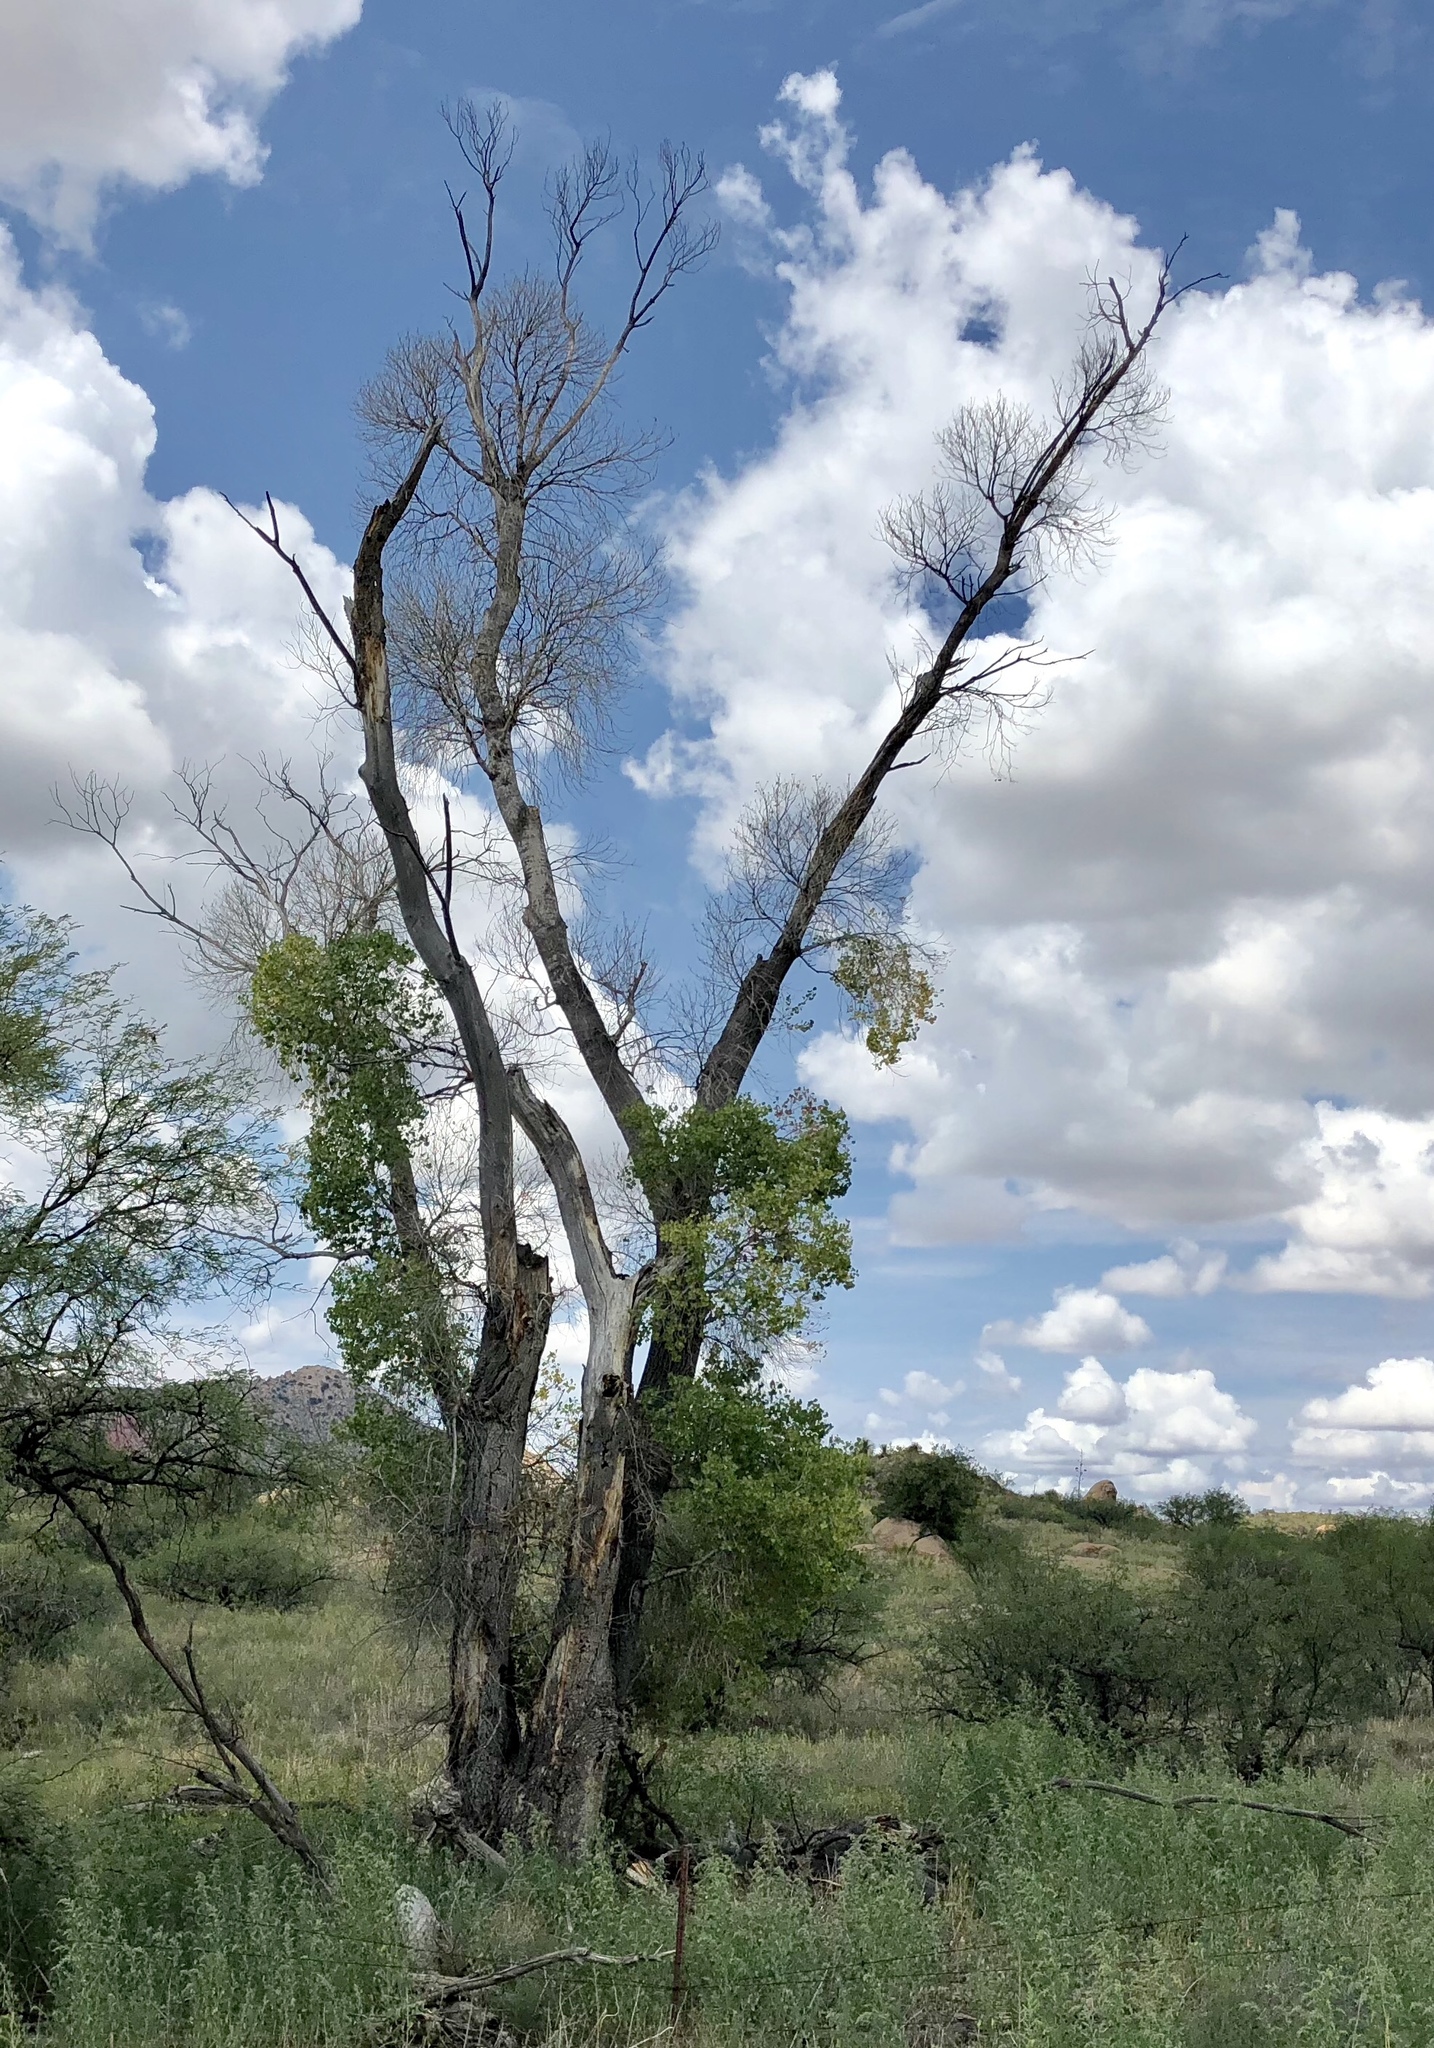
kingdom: Plantae
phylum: Tracheophyta
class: Magnoliopsida
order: Malpighiales
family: Salicaceae
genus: Populus
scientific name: Populus fremontii
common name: Fremont's cottonwood
